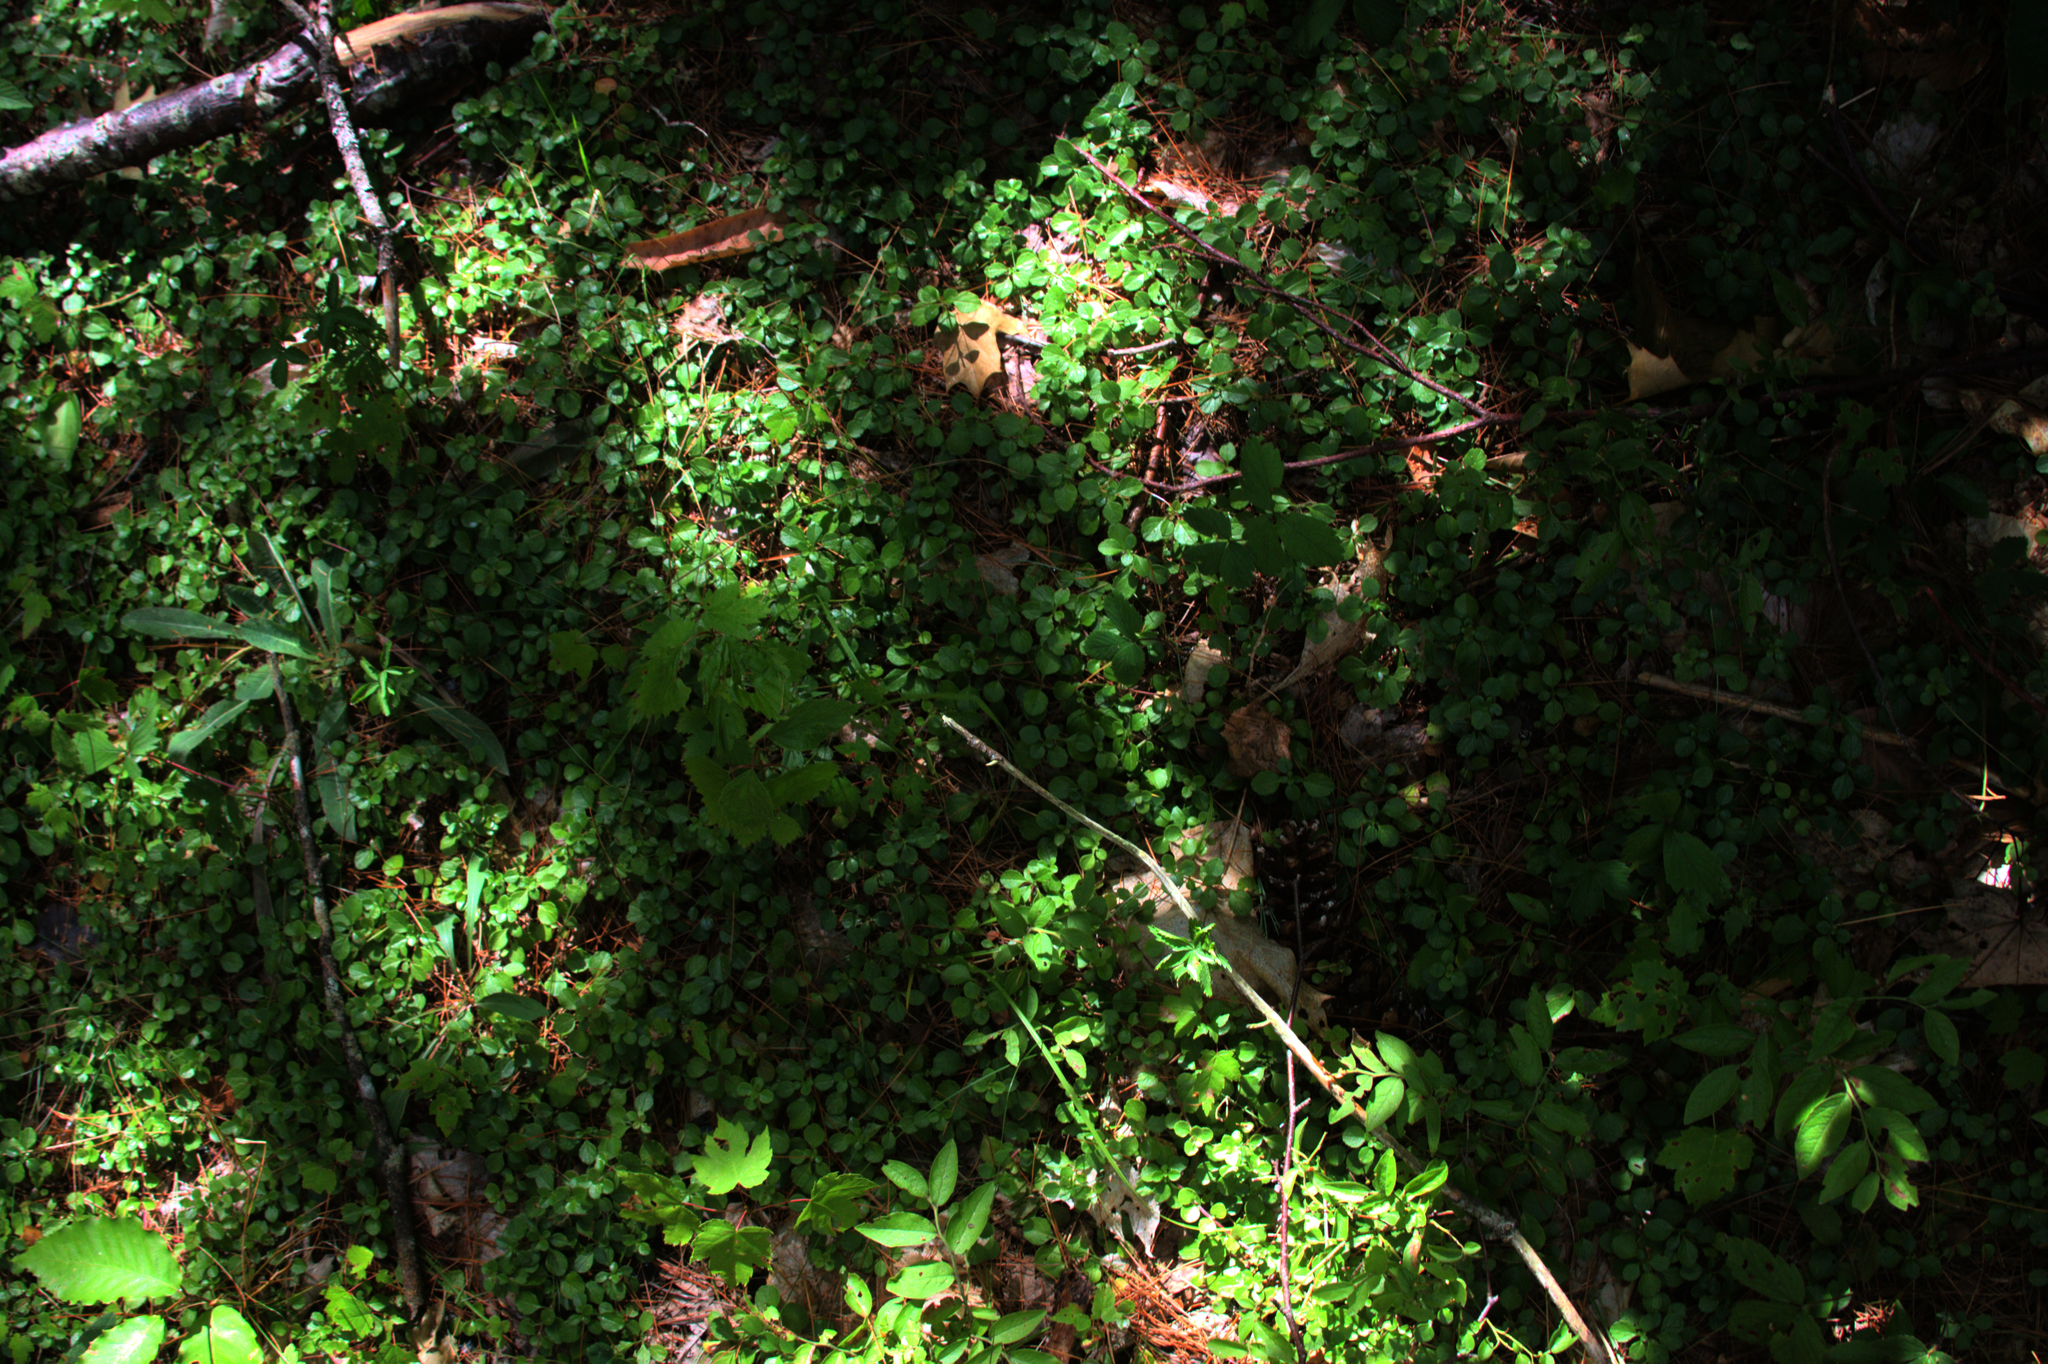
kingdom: Plantae
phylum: Tracheophyta
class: Magnoliopsida
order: Dipsacales
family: Caprifoliaceae
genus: Linnaea
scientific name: Linnaea borealis
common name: Twinflower
